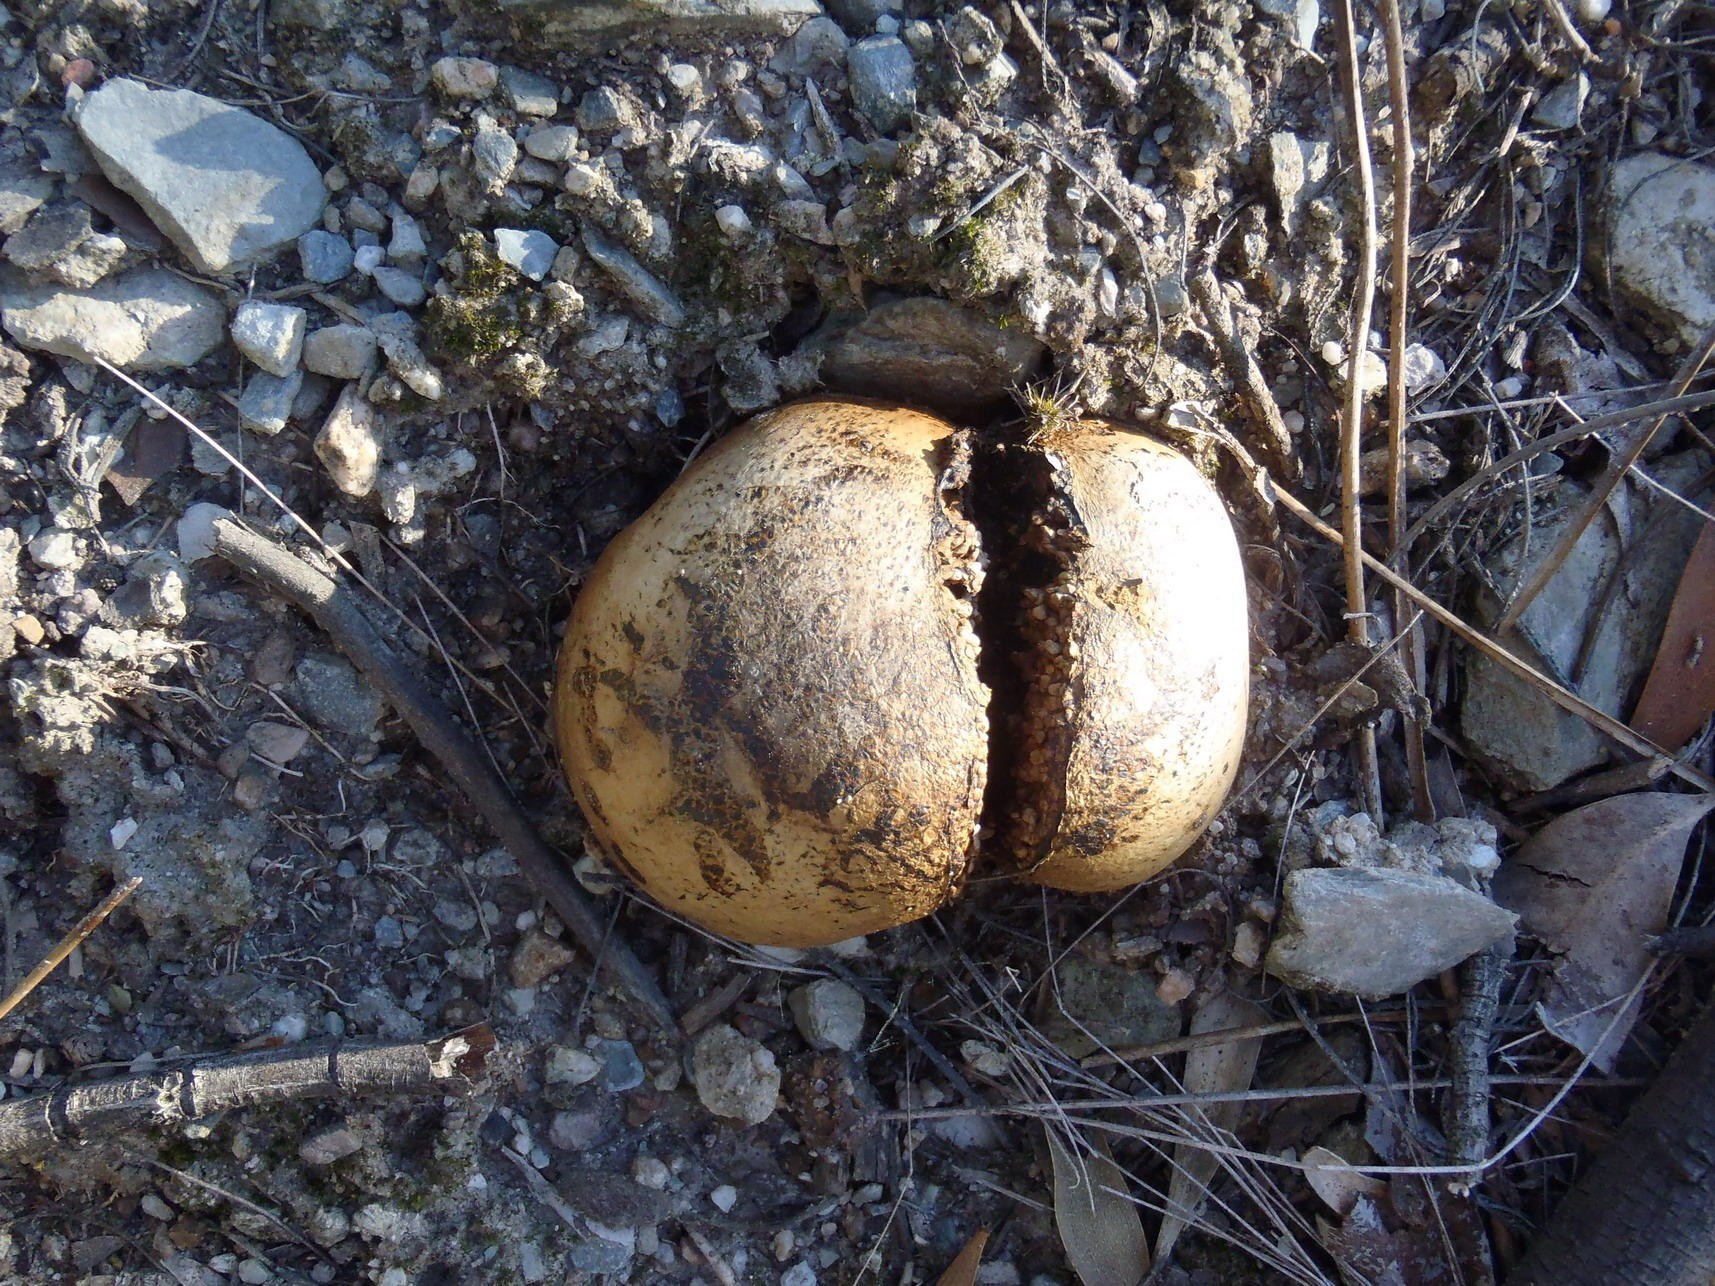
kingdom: Fungi
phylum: Basidiomycota
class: Agaricomycetes
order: Boletales
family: Sclerodermataceae
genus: Pisolithus
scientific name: Pisolithus tinctorius
